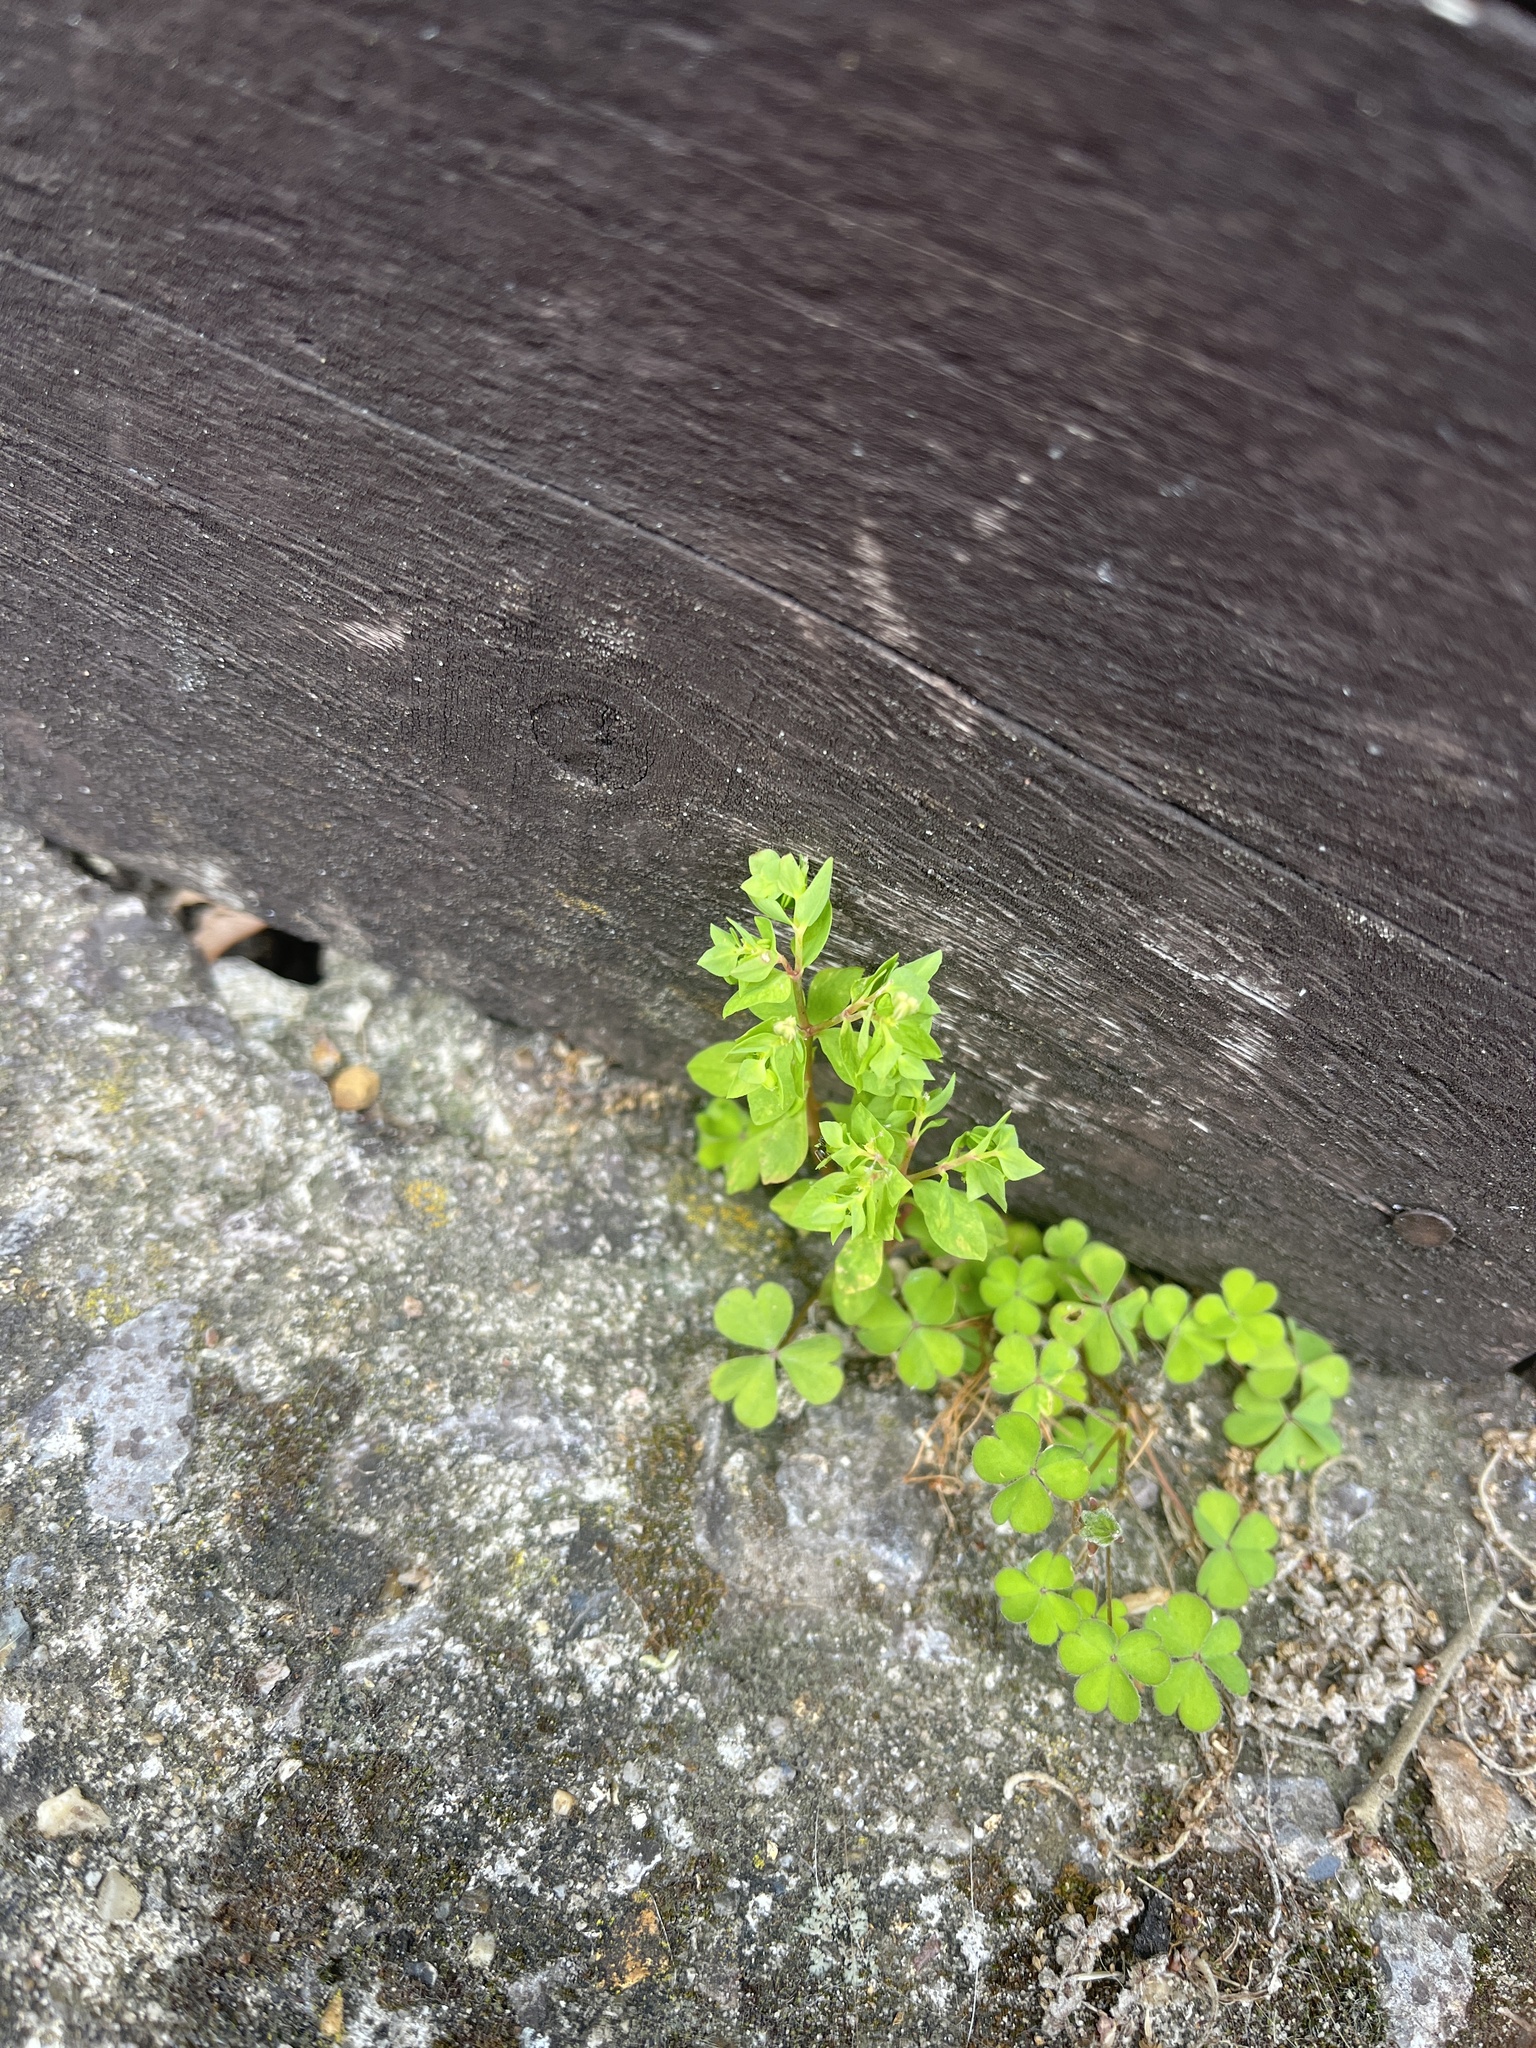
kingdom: Plantae
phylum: Tracheophyta
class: Magnoliopsida
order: Malpighiales
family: Euphorbiaceae
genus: Euphorbia
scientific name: Euphorbia peplus
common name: Petty spurge
